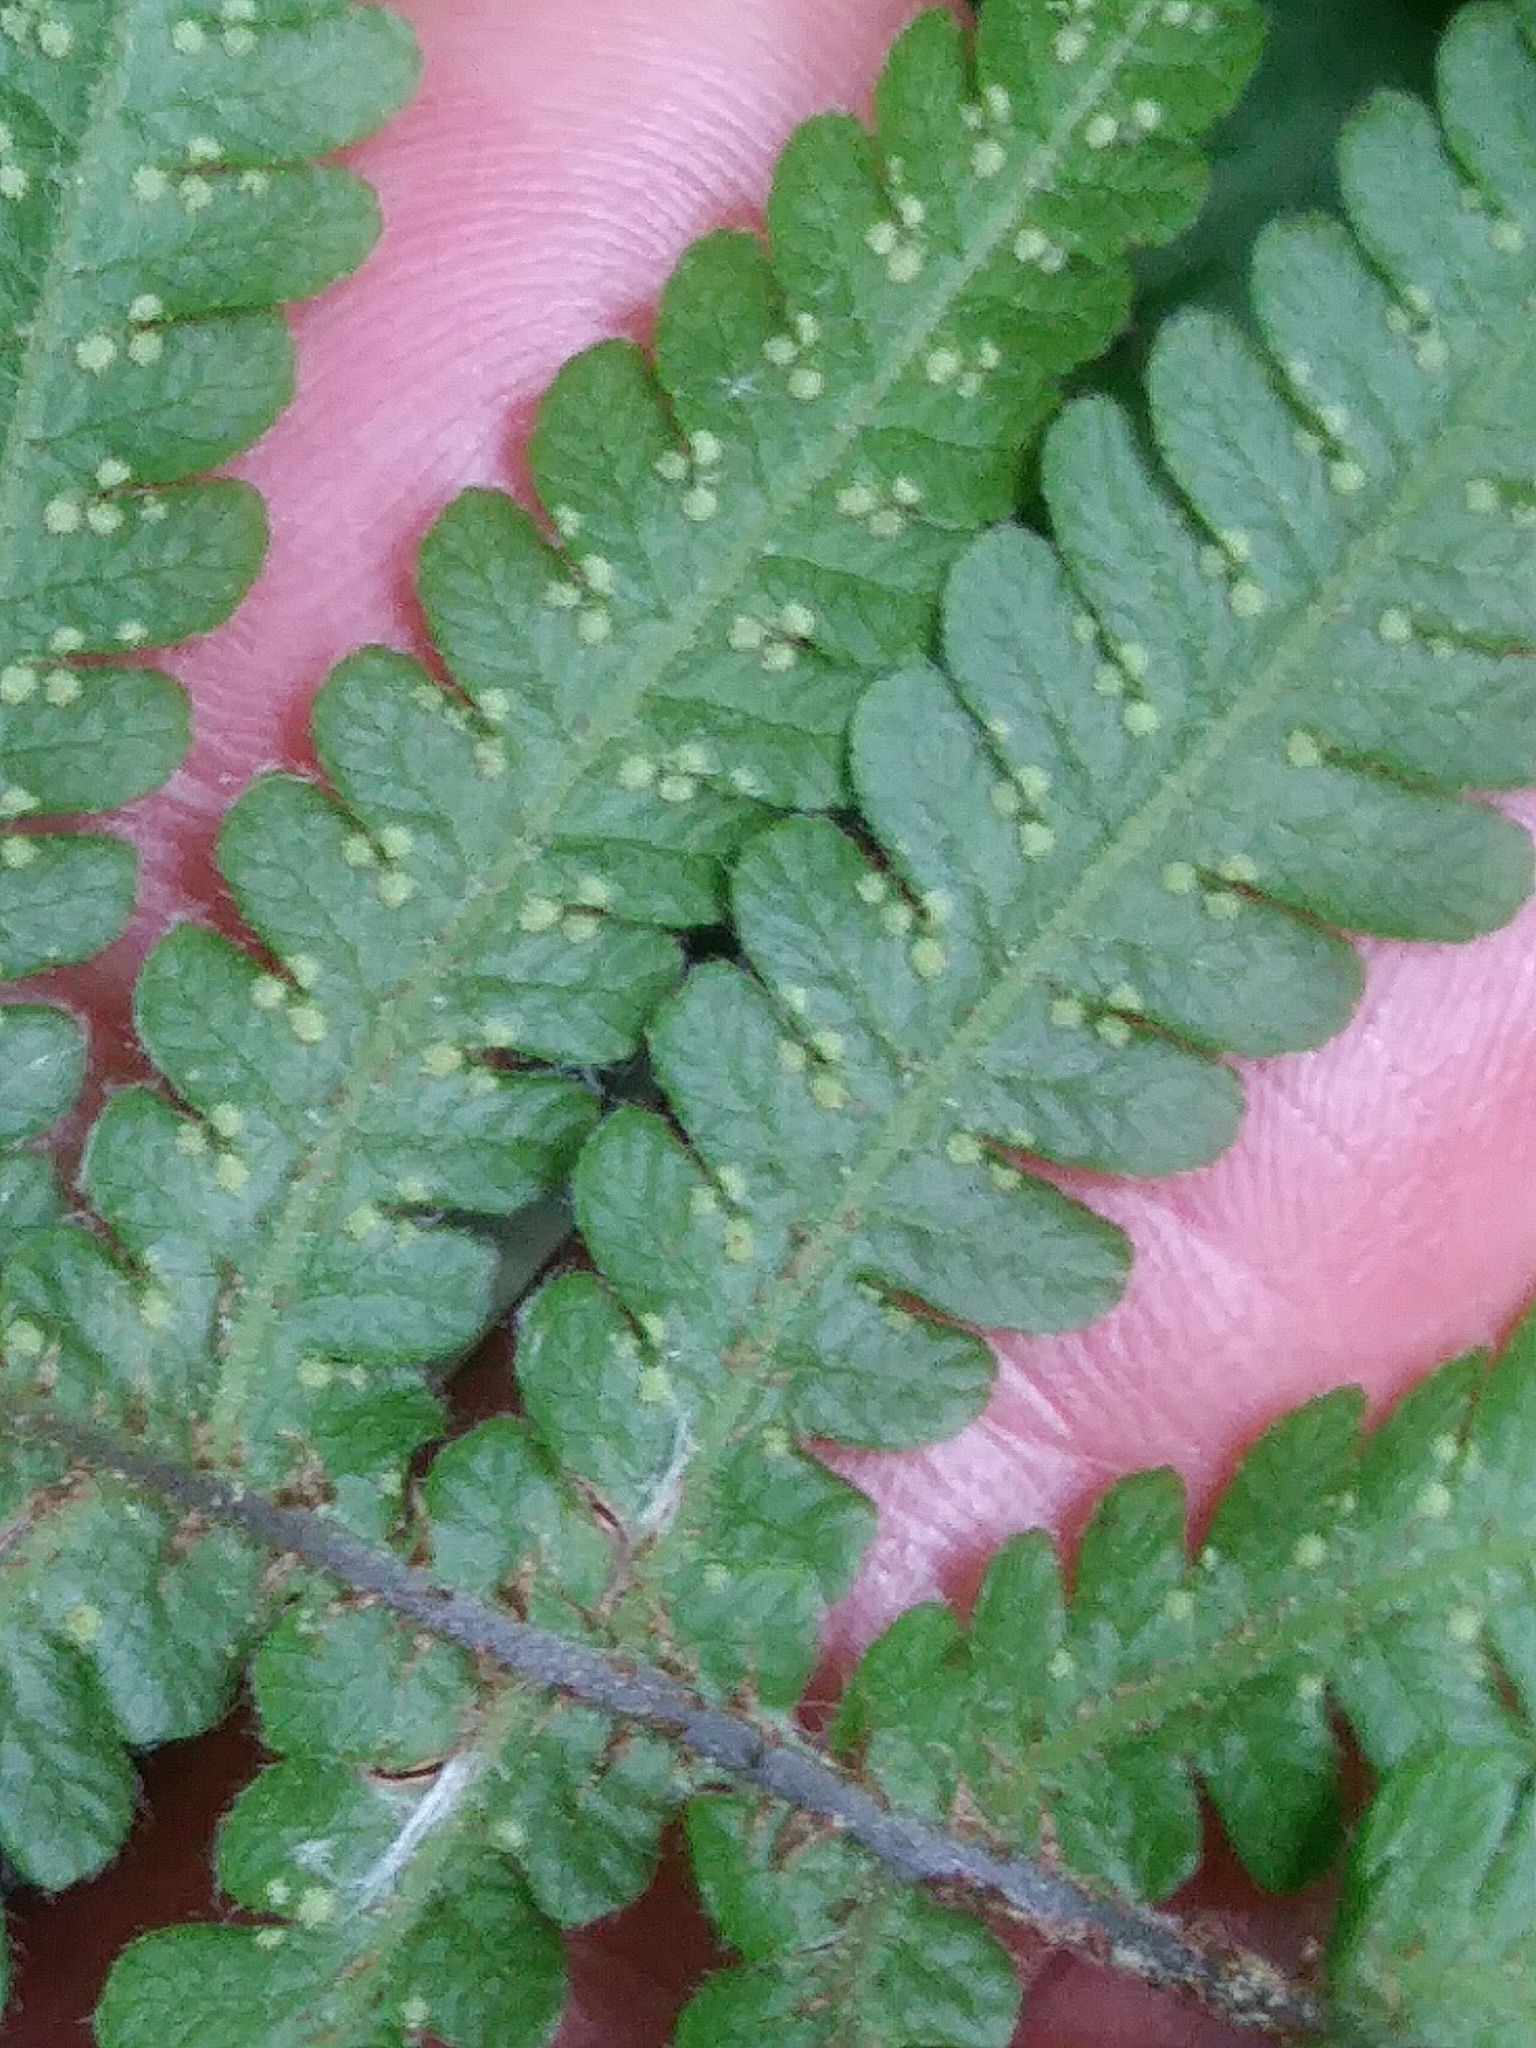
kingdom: Plantae
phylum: Tracheophyta
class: Polypodiopsida
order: Polypodiales
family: Thelypteridaceae
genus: Phegopteris
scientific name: Phegopteris connectilis
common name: Beech fern
